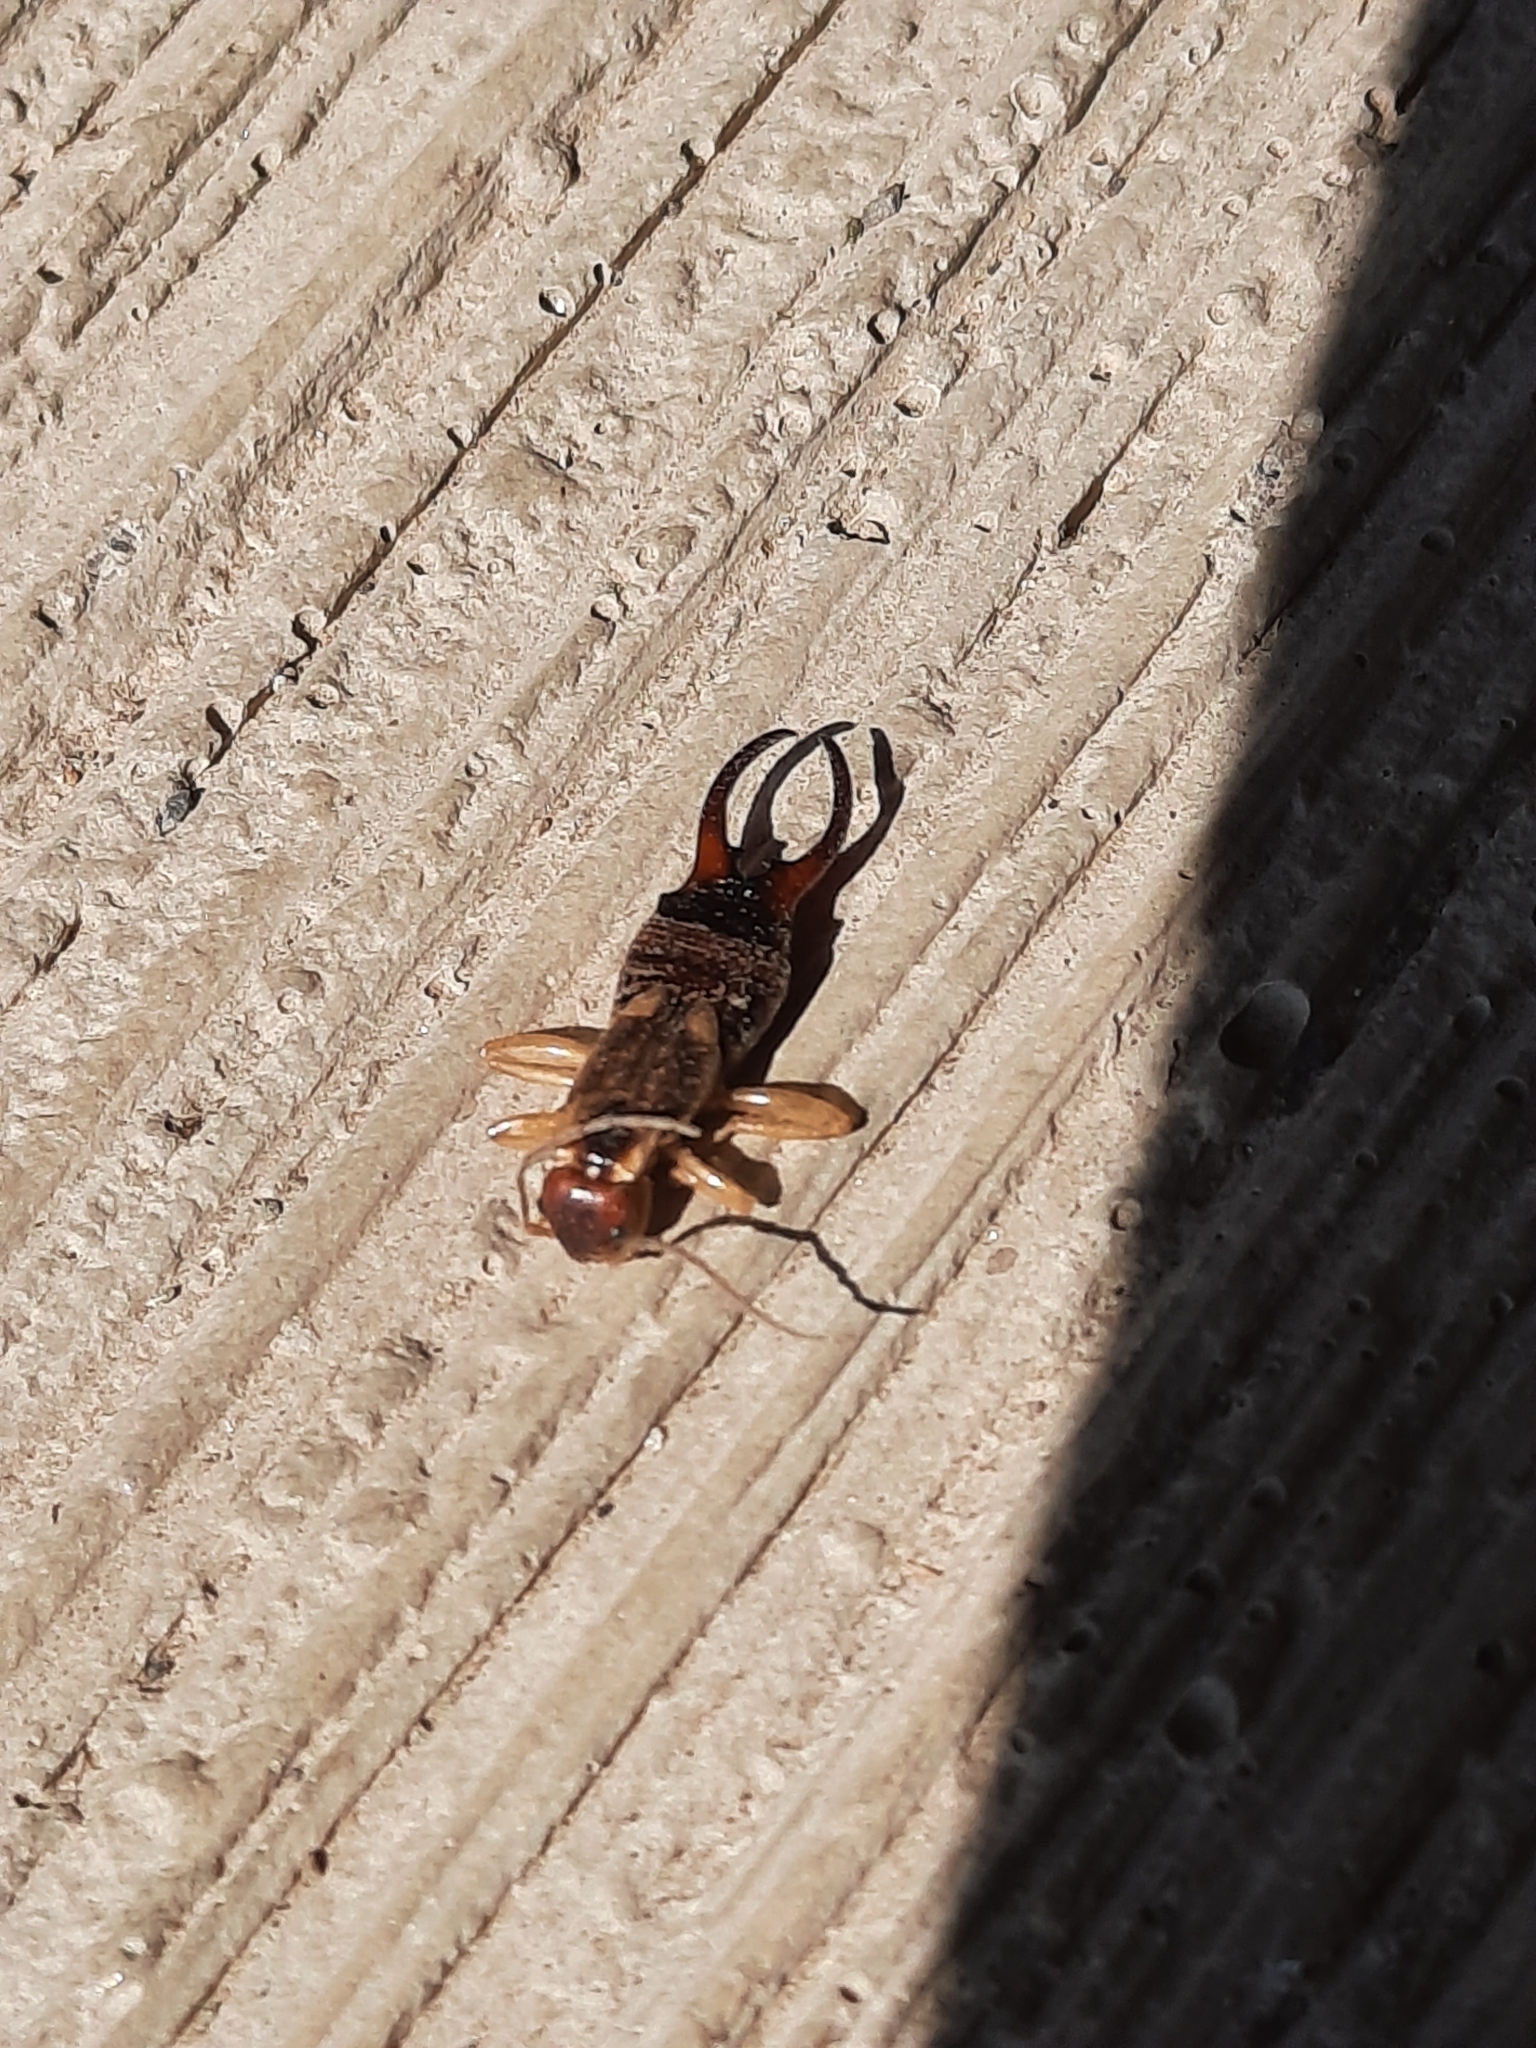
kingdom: Animalia
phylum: Arthropoda
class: Insecta
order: Dermaptera
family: Forficulidae
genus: Forficula
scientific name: Forficula
